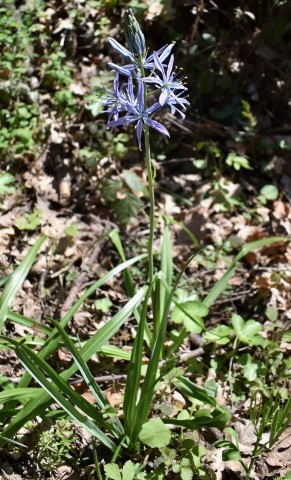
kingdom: Plantae
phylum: Tracheophyta
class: Liliopsida
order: Asparagales
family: Asparagaceae
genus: Camassia
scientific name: Camassia leichtlinii
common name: Leichtlin's camas
